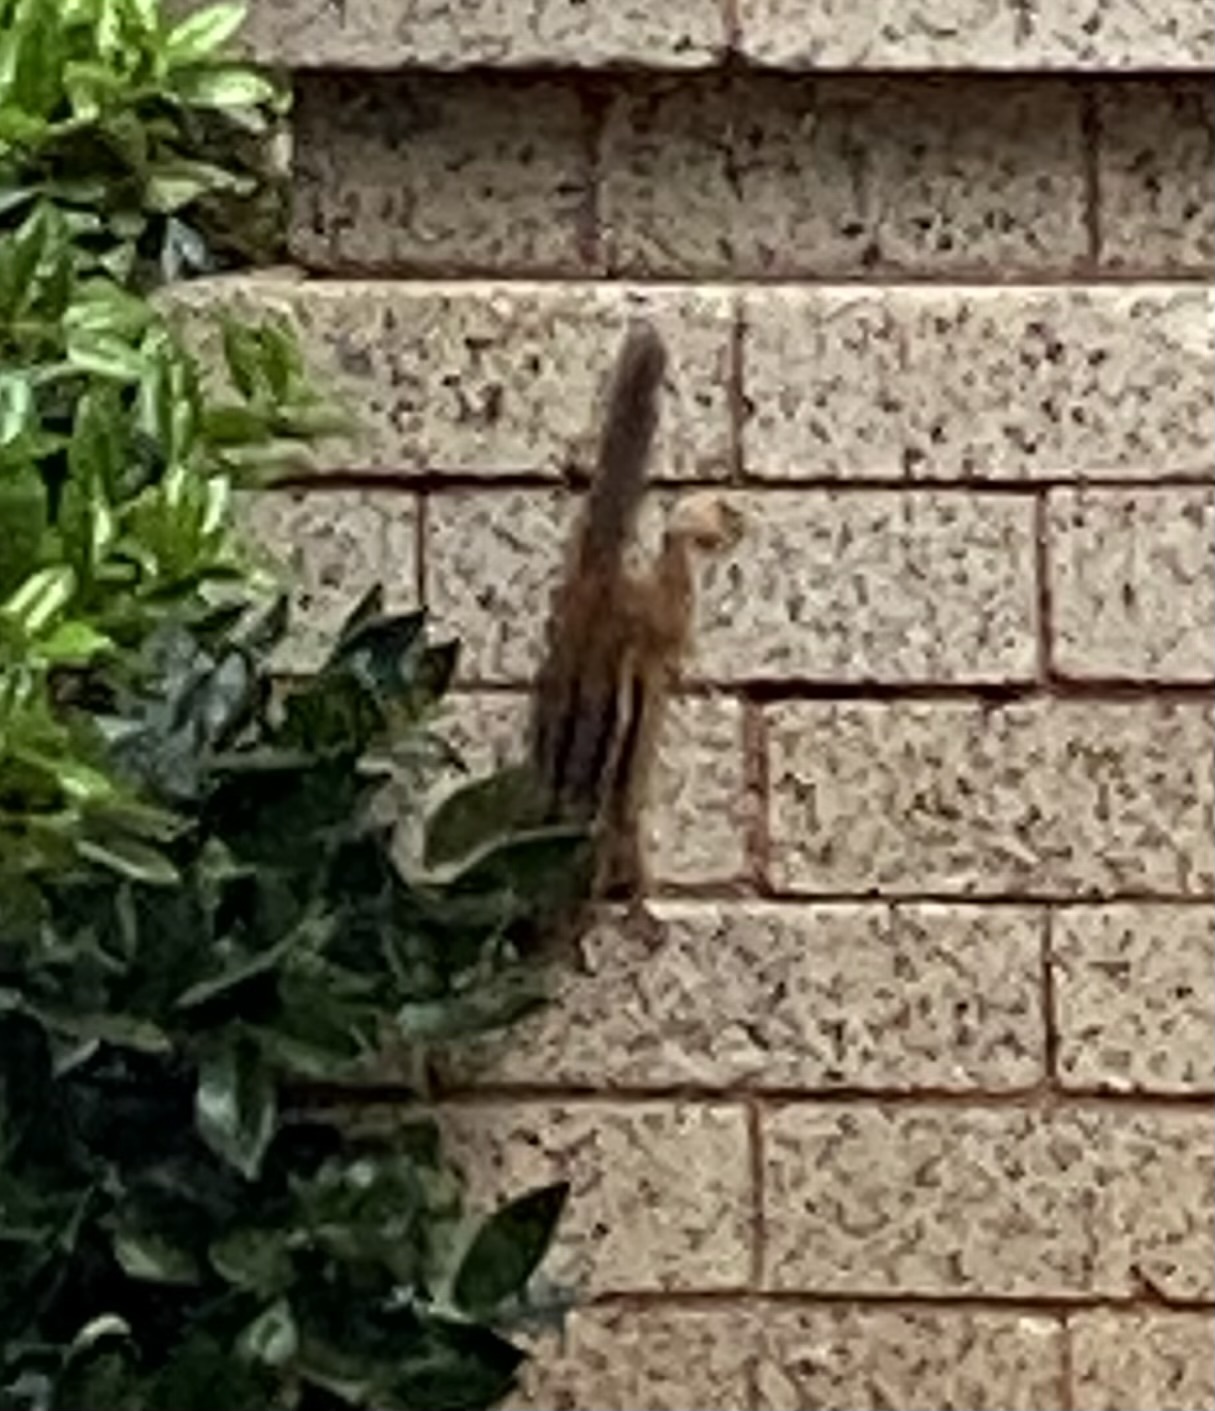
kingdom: Animalia
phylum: Chordata
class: Mammalia
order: Rodentia
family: Sciuridae
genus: Tamias
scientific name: Tamias striatus
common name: Eastern chipmunk
